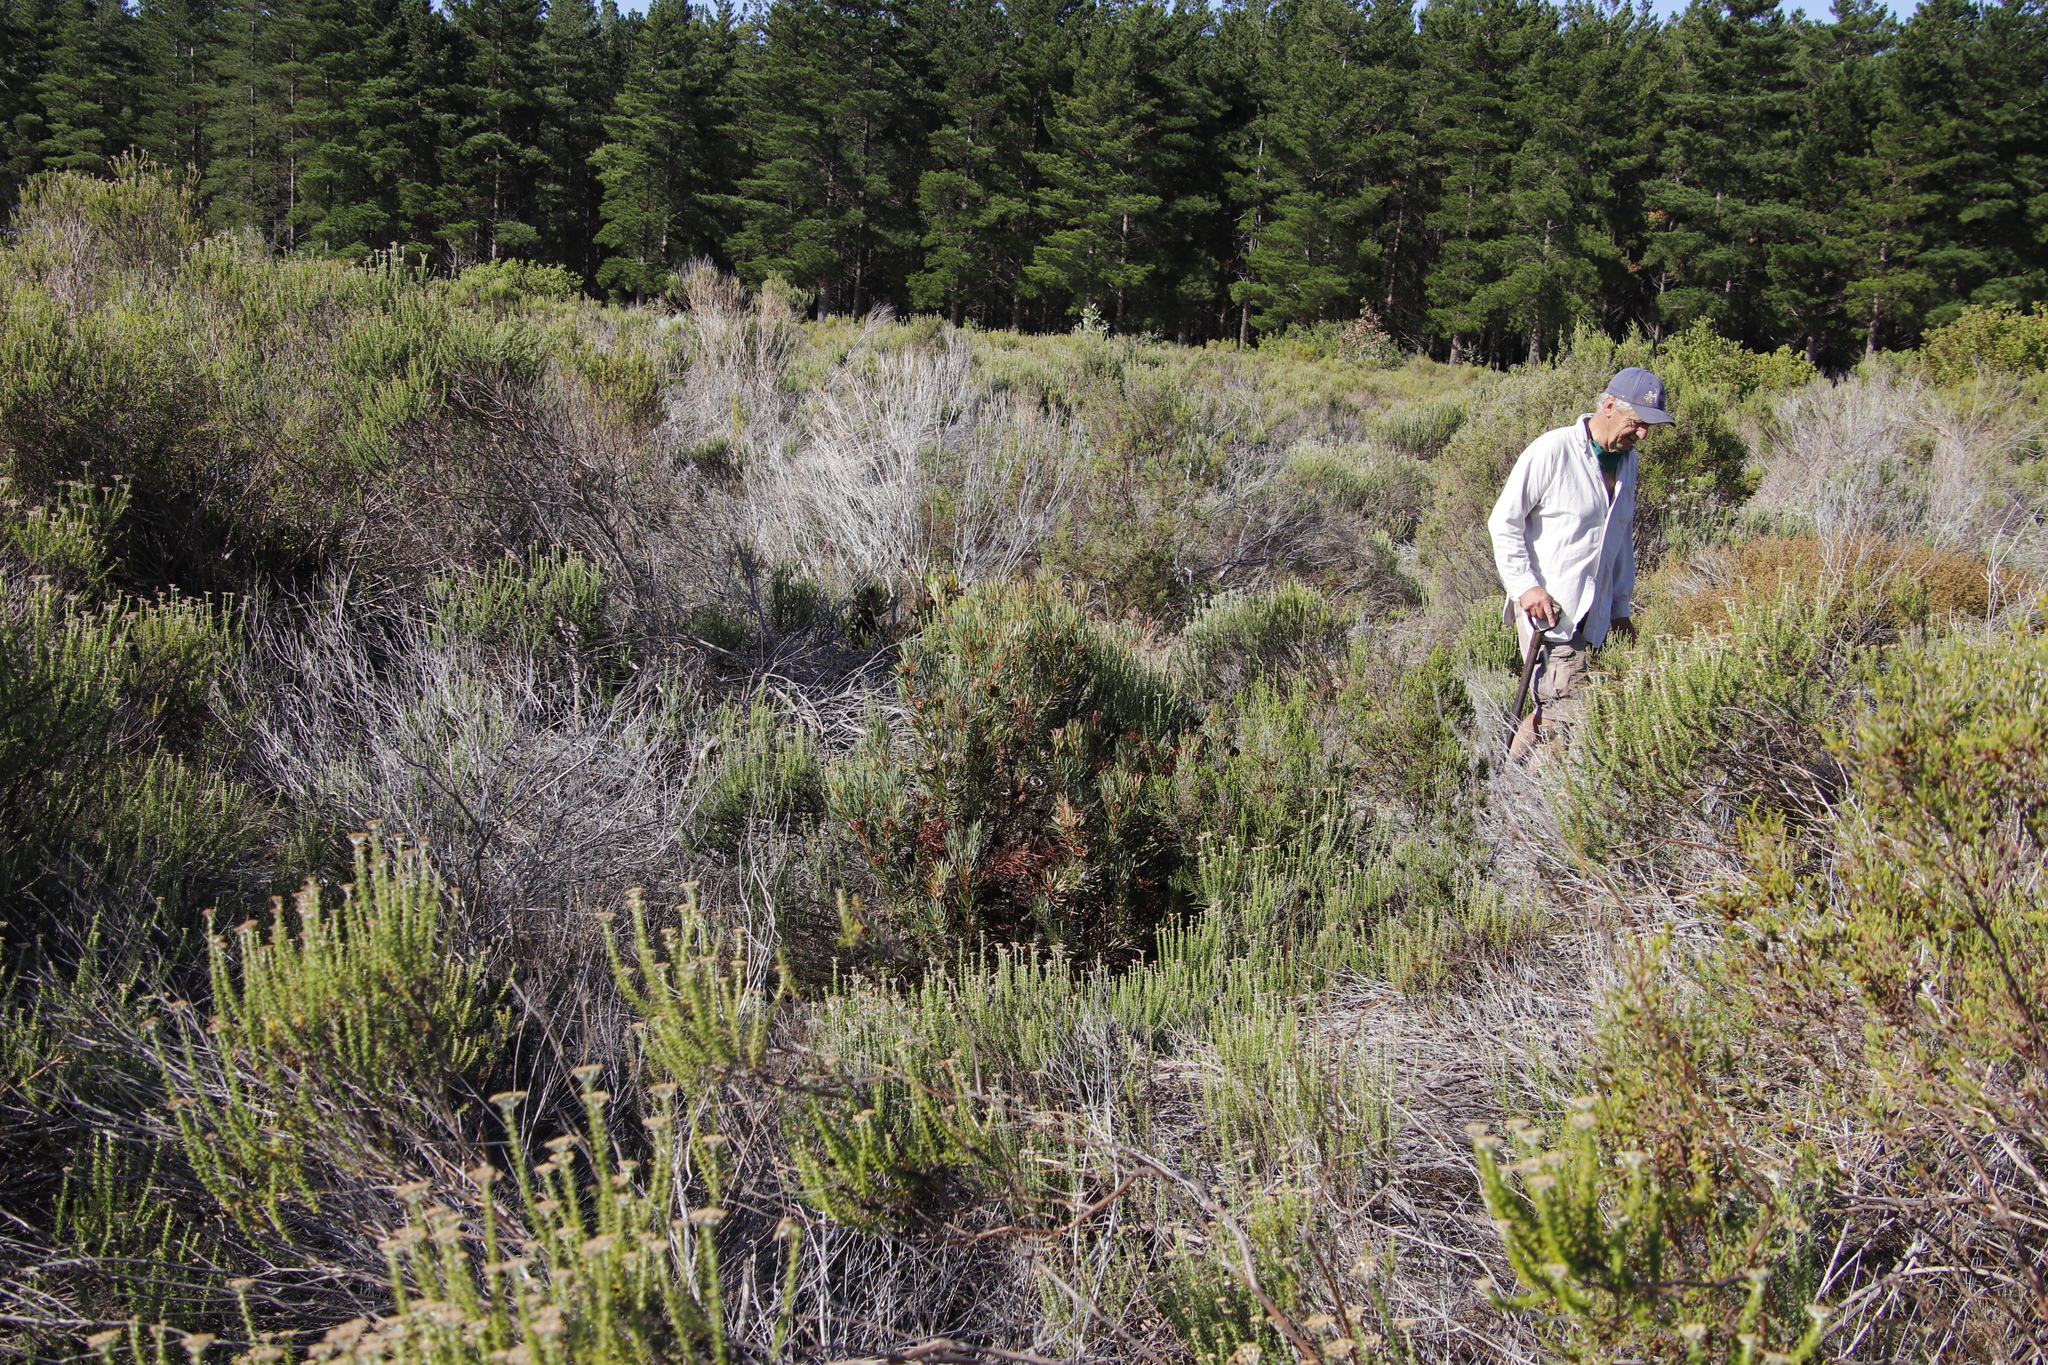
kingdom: Plantae
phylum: Tracheophyta
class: Magnoliopsida
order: Proteales
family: Proteaceae
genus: Protea
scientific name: Protea scolymocephala
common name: Thistle sugarbush
